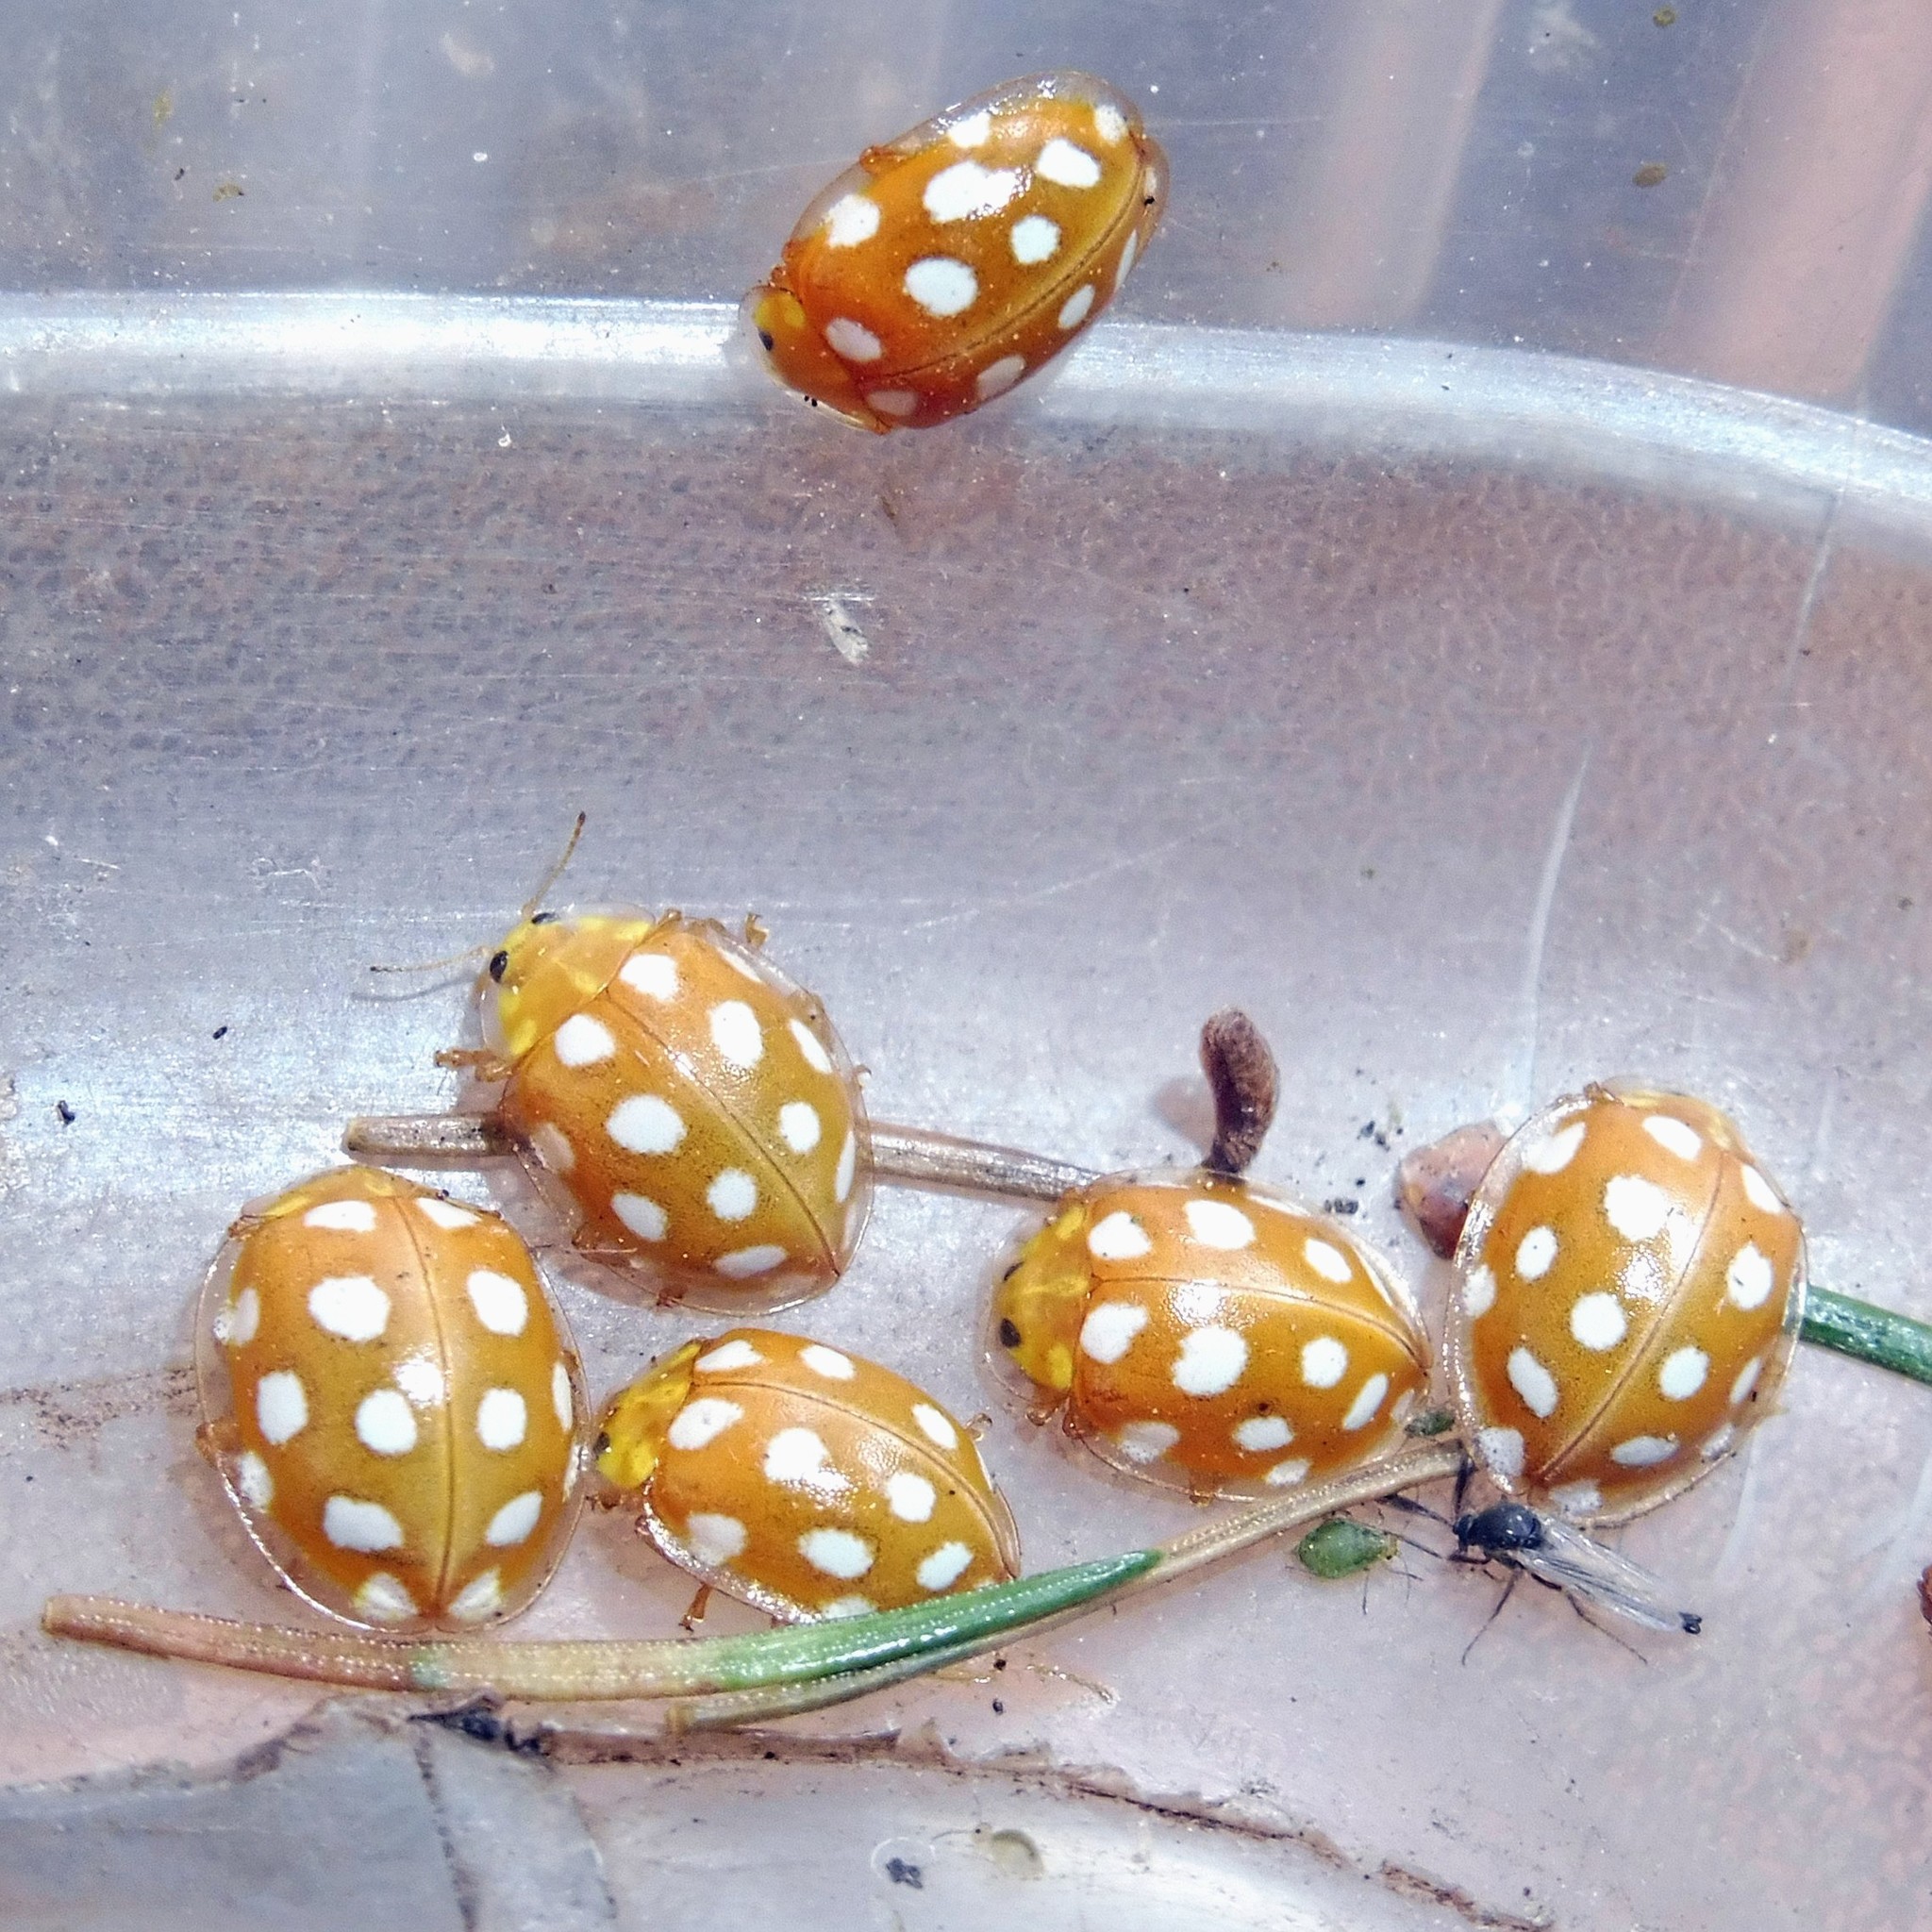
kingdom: Animalia
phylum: Arthropoda
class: Insecta
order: Coleoptera
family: Coccinellidae
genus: Halyzia
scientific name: Halyzia sedecimguttata
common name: Orange ladybird
